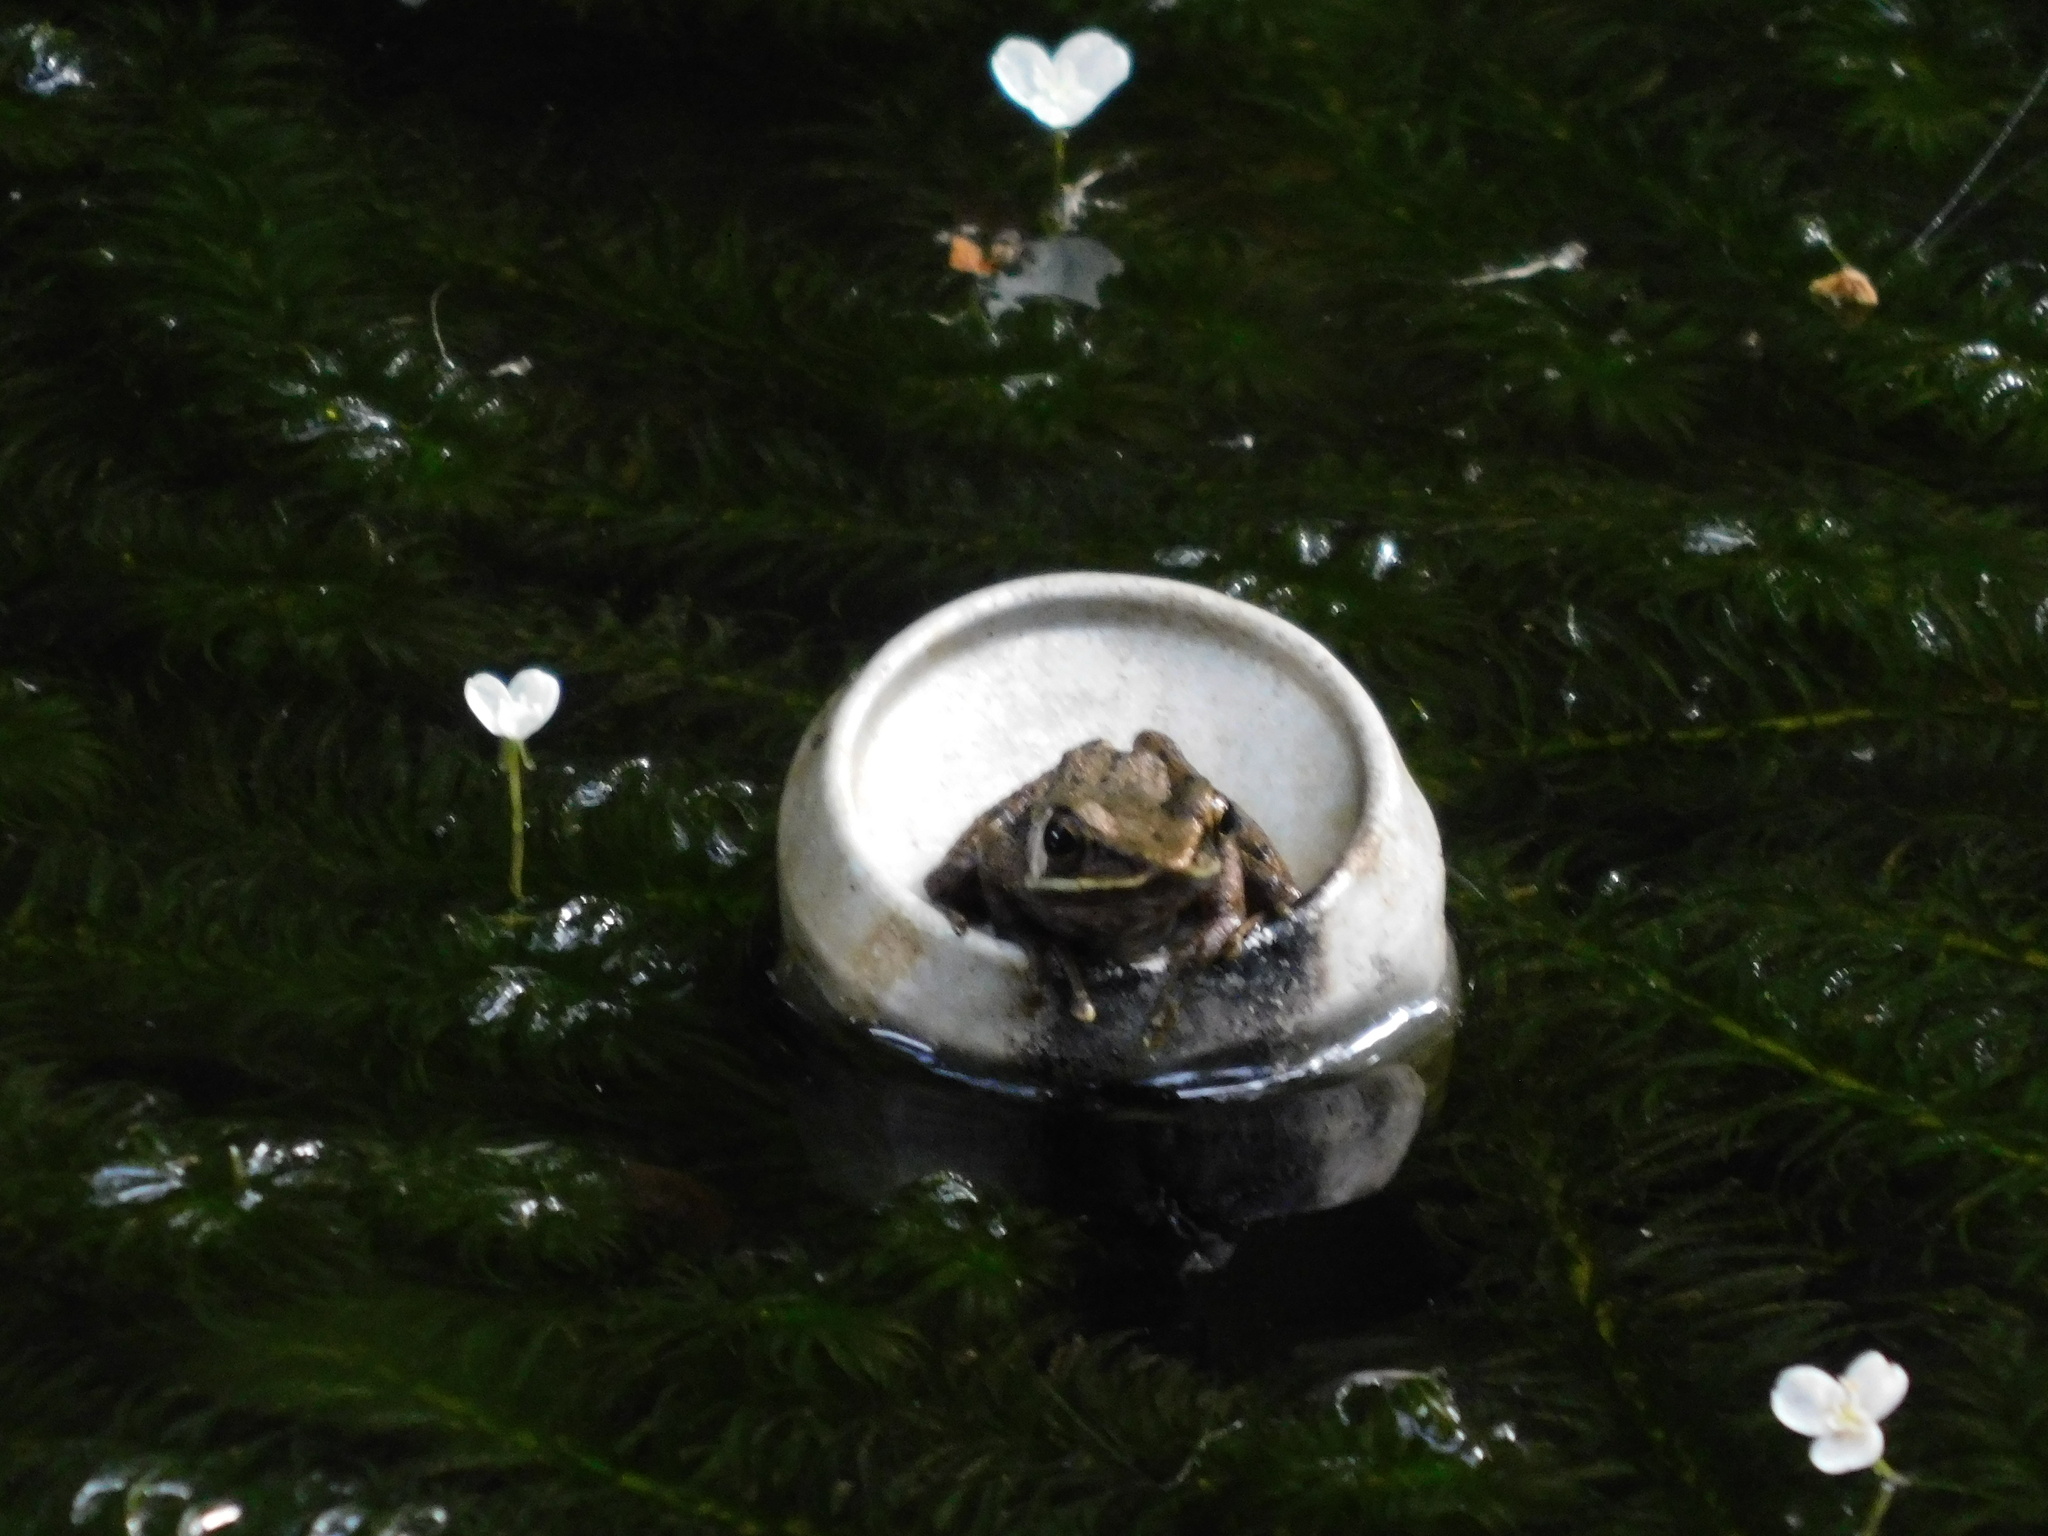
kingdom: Animalia
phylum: Chordata
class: Amphibia
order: Anura
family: Ranidae
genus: Chalcorana
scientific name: Chalcorana chalconota
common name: Schlegel's frog
